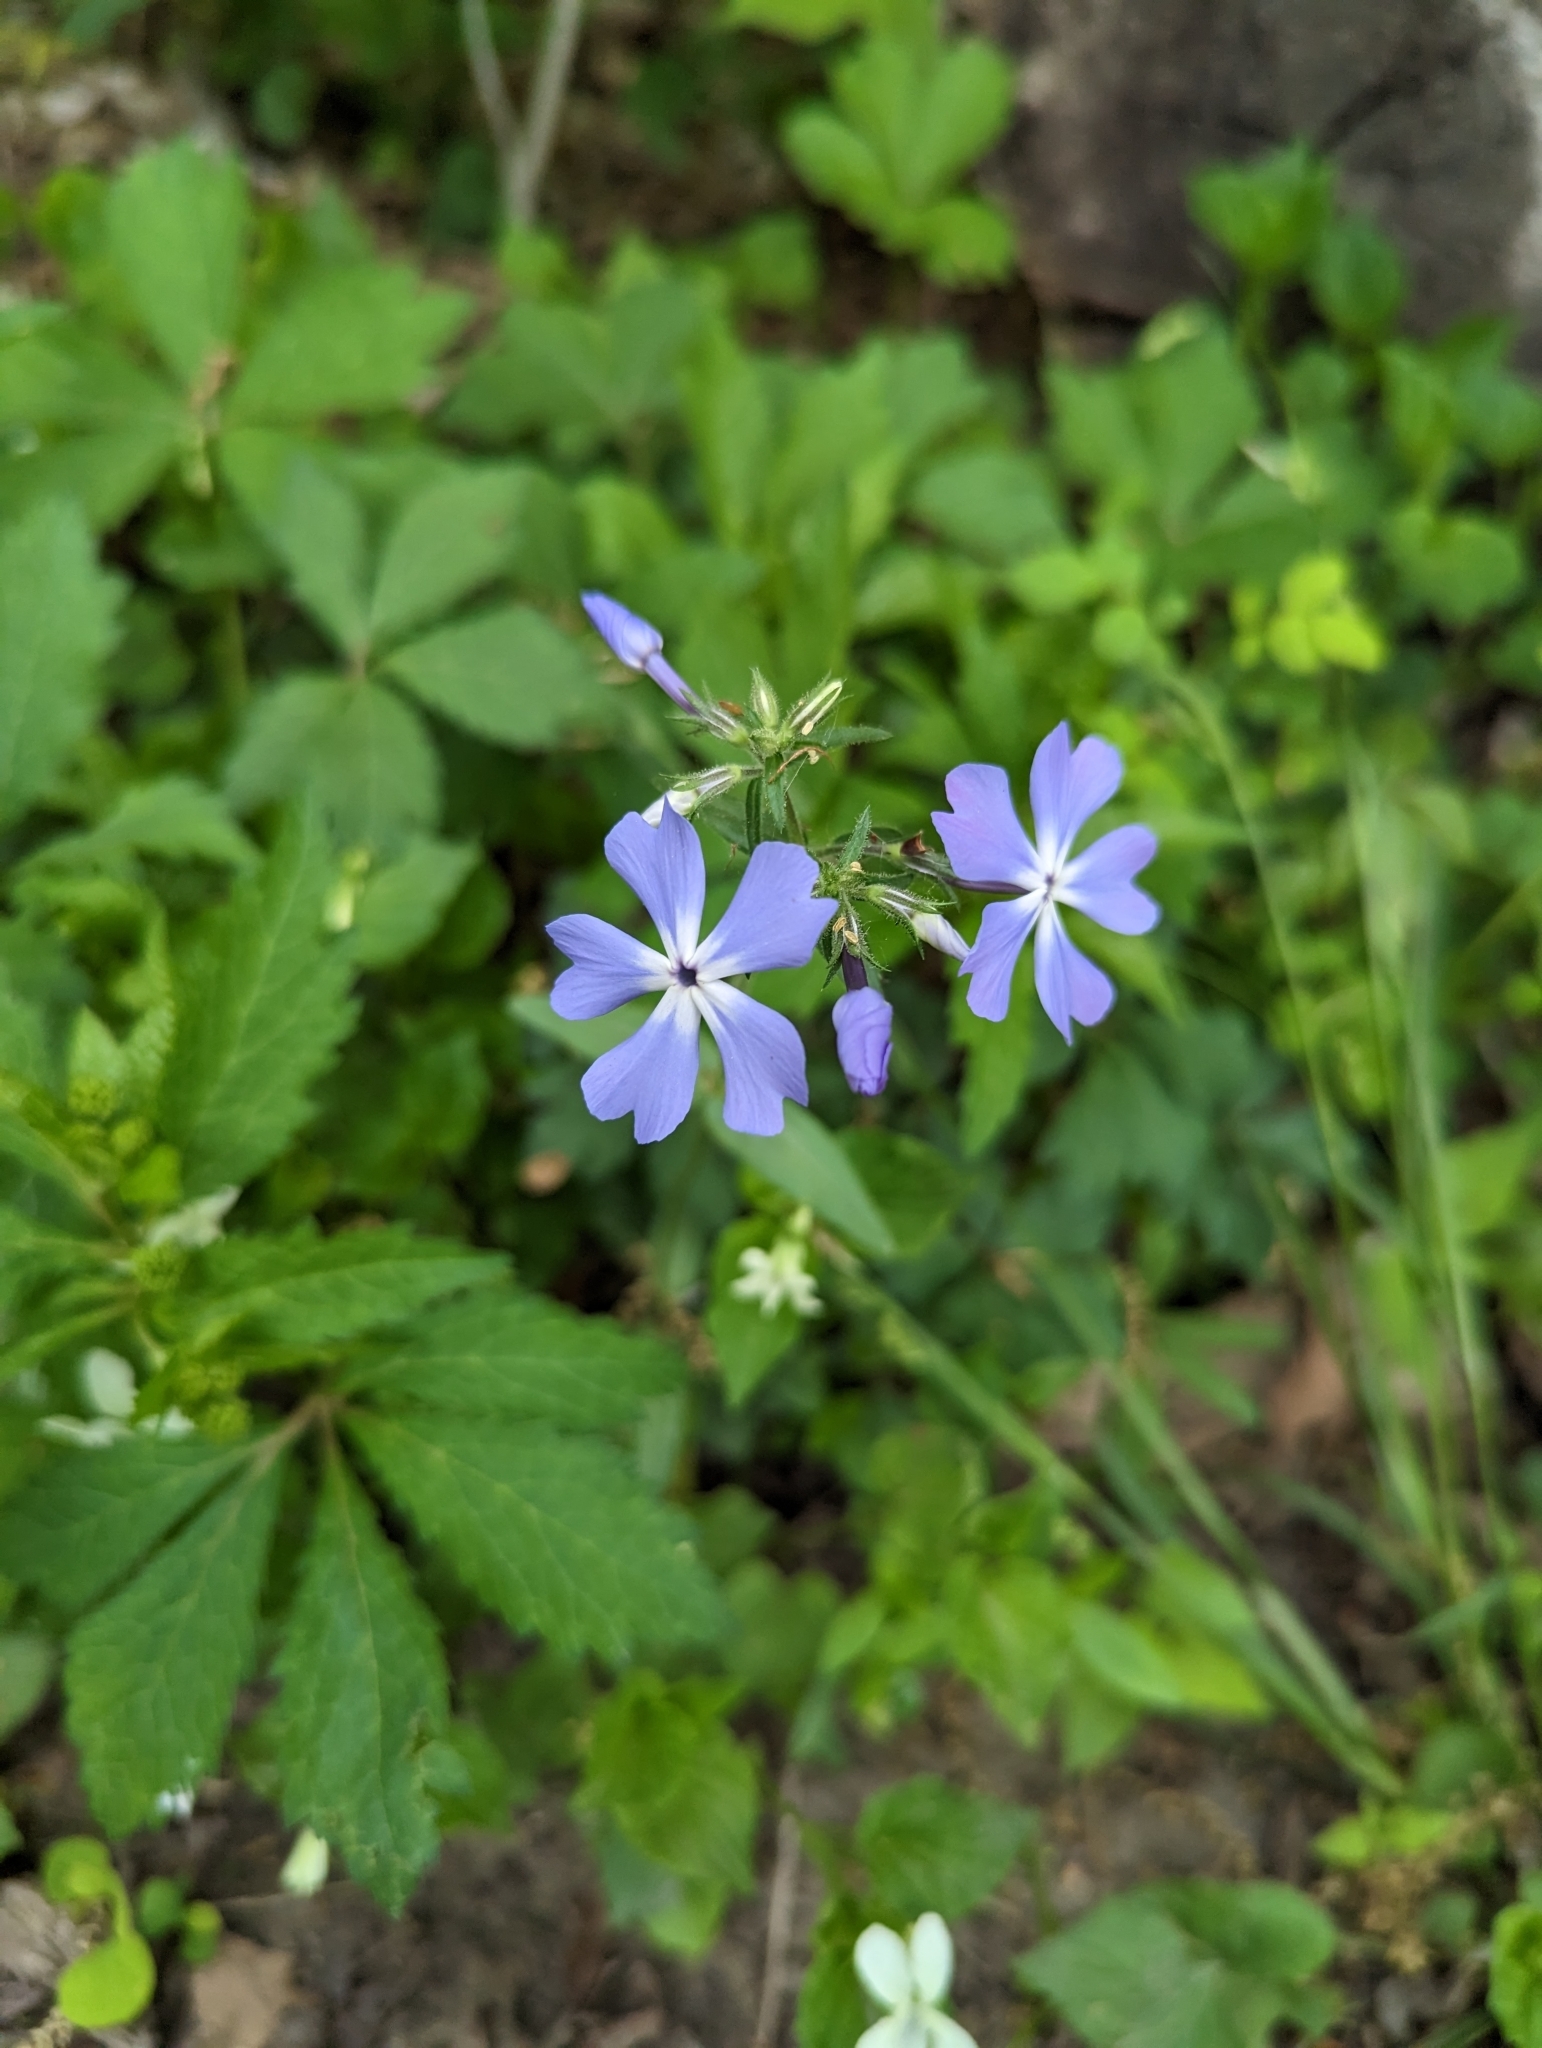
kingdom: Plantae
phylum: Tracheophyta
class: Magnoliopsida
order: Ericales
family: Polemoniaceae
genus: Phlox
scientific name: Phlox divaricata
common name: Blue phlox
